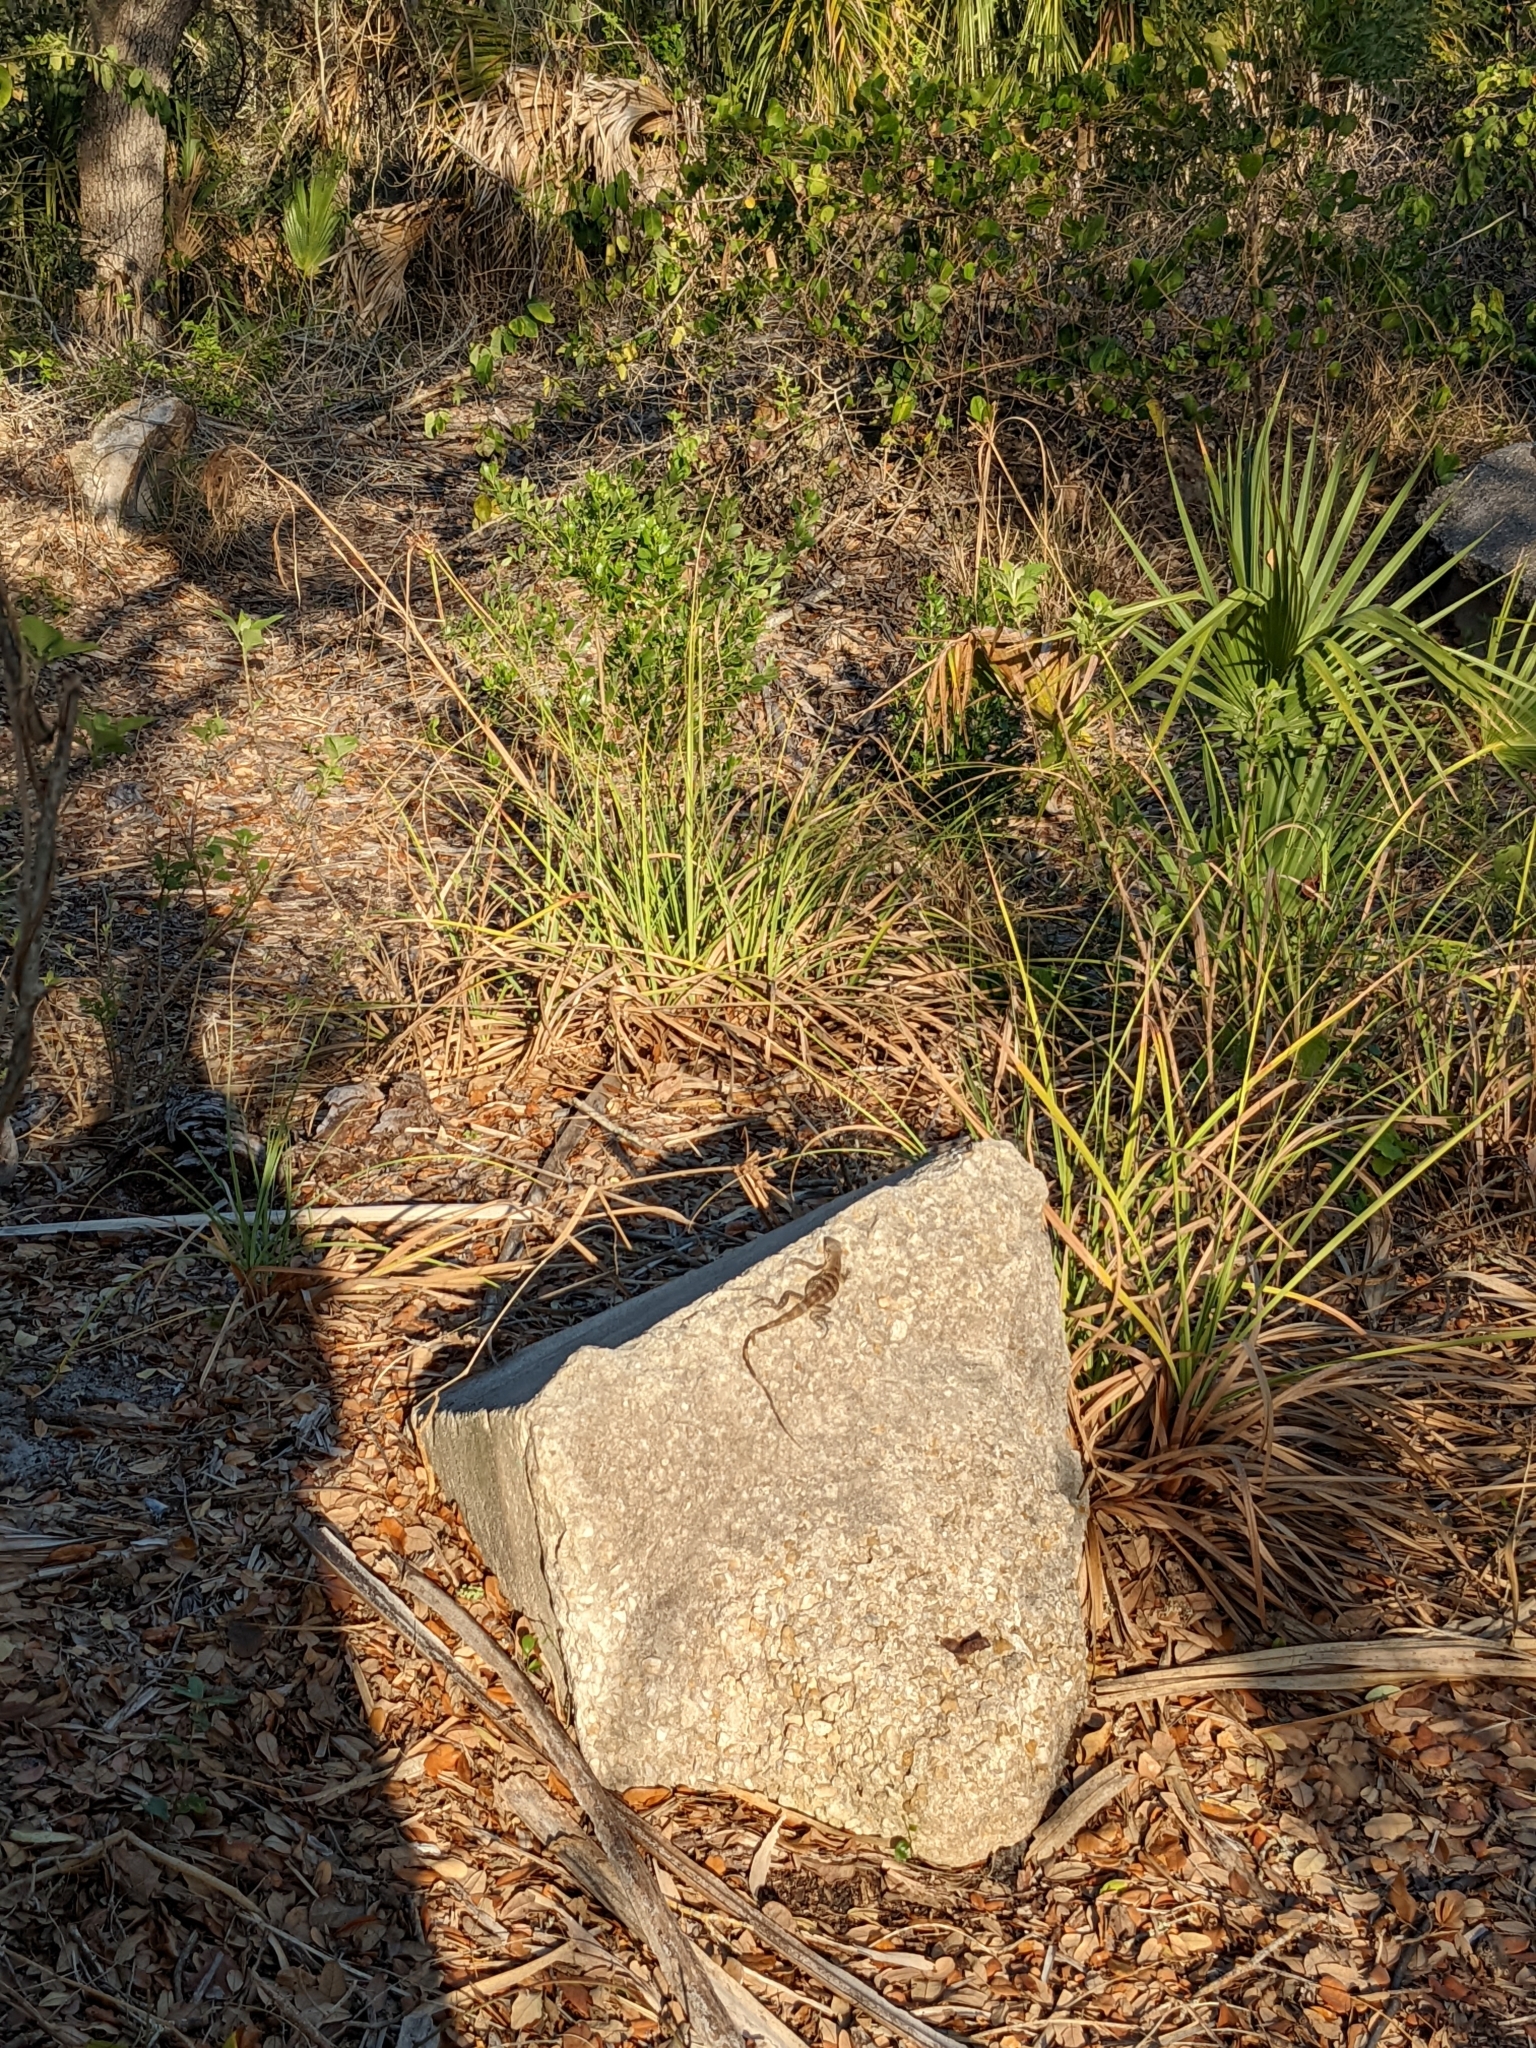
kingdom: Animalia
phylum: Chordata
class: Squamata
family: Iguanidae
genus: Ctenosaura
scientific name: Ctenosaura similis
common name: Black spiny-tailed iguana
